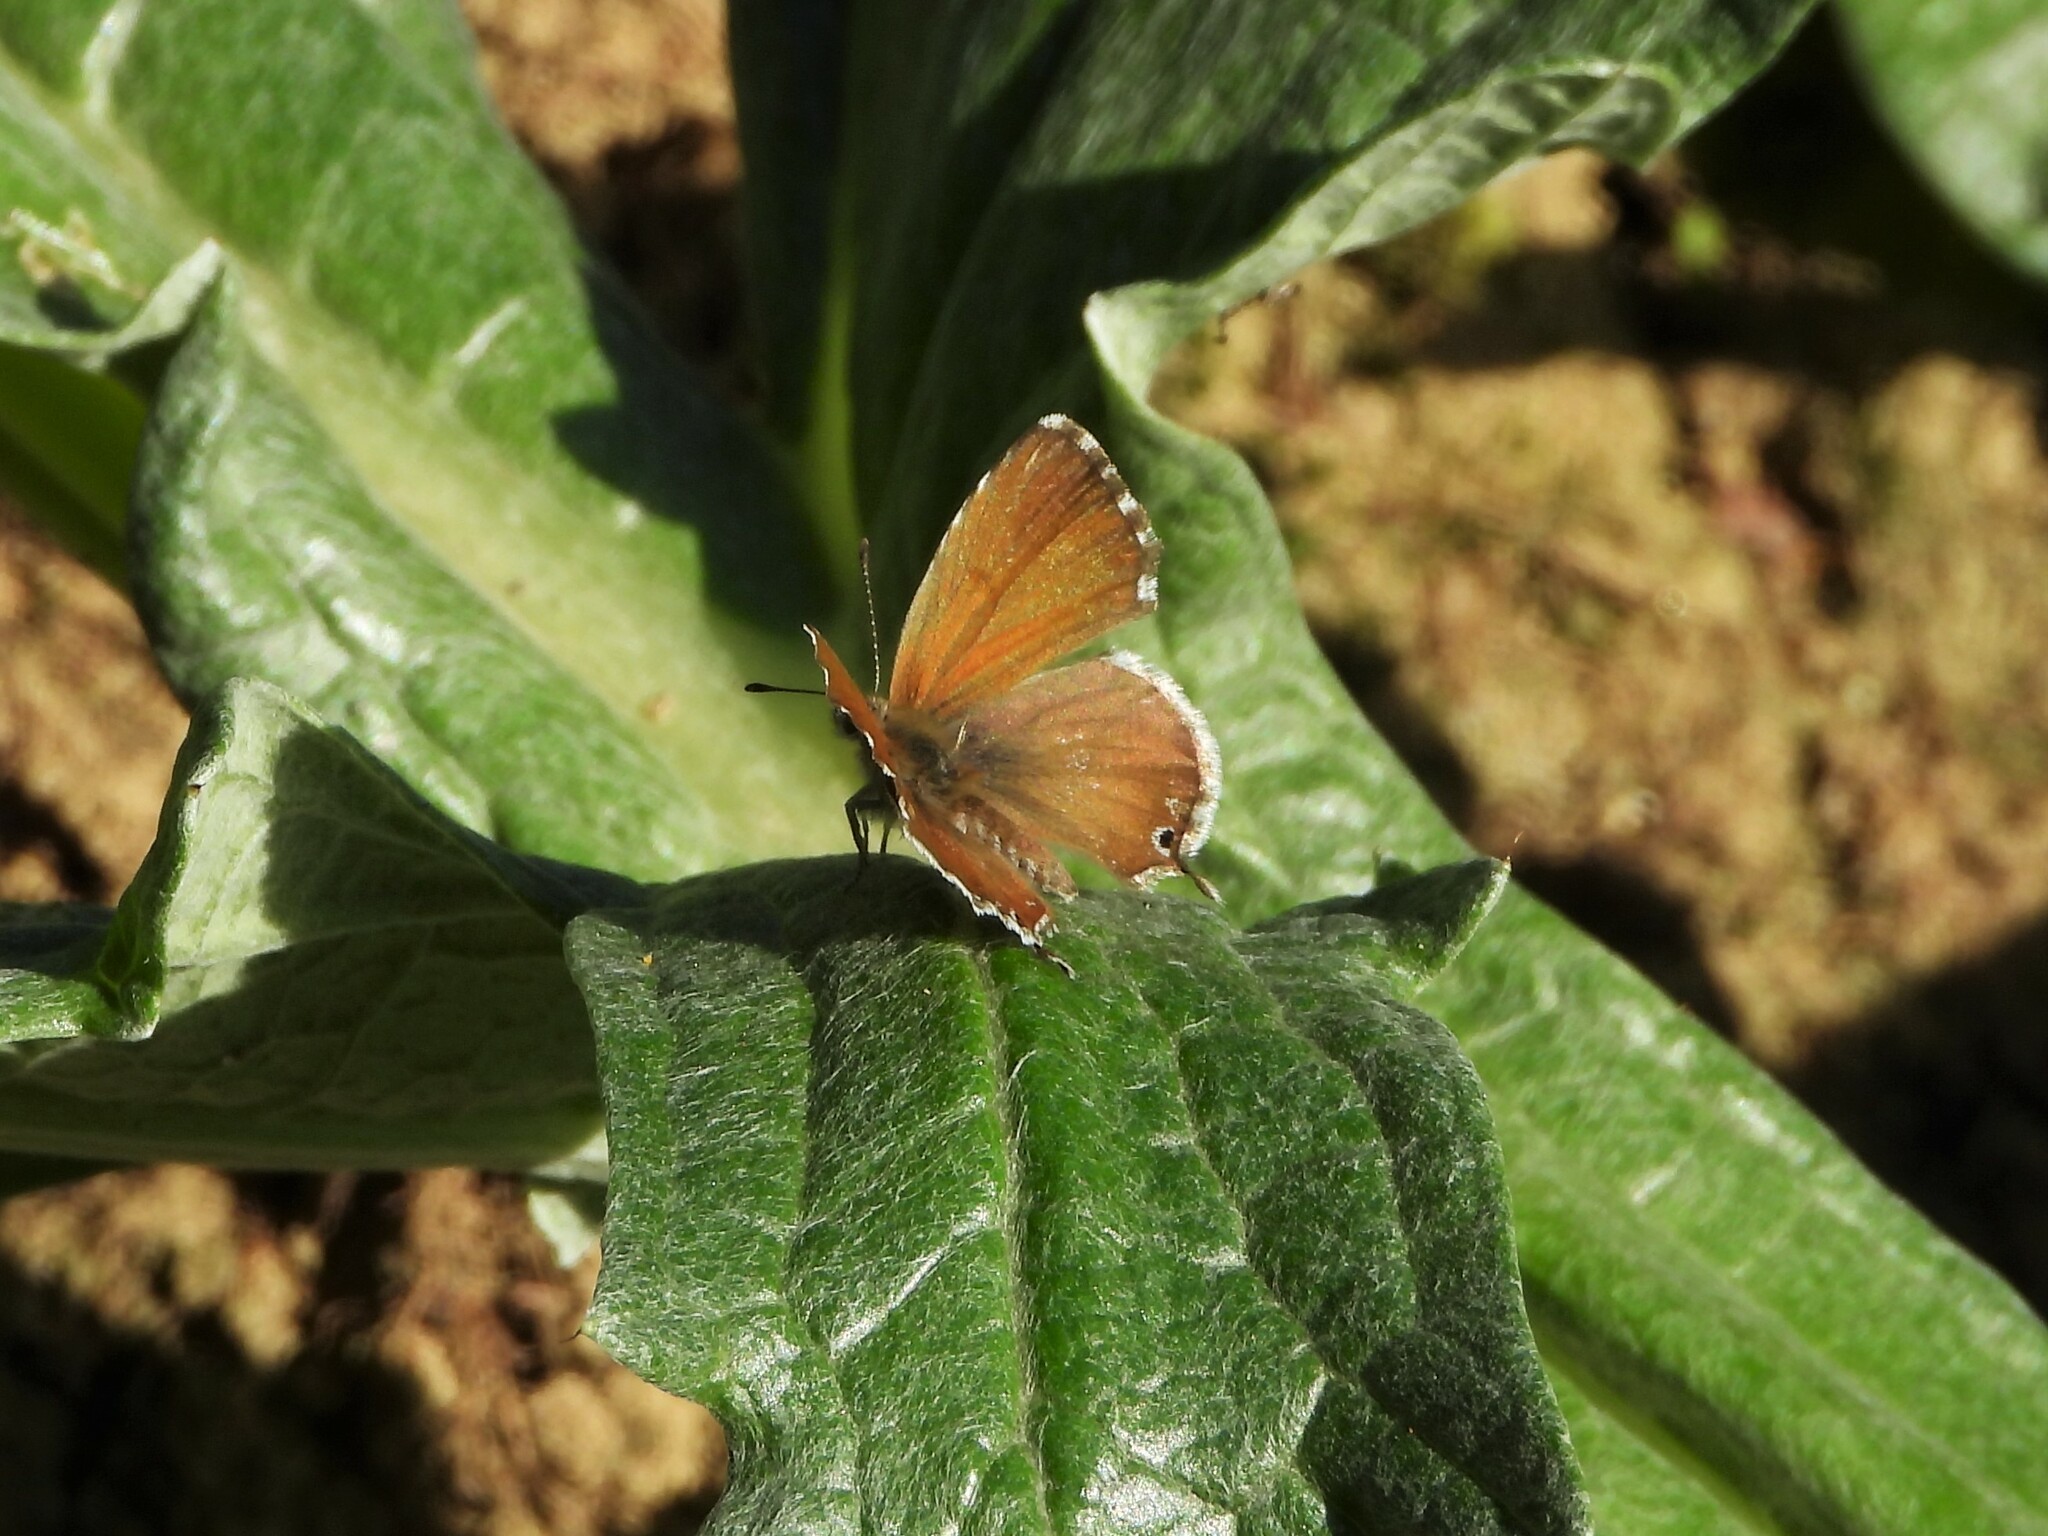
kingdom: Animalia
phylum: Arthropoda
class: Insecta
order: Lepidoptera
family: Lycaenidae
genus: Cacyreus
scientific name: Cacyreus marshalli
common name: Geranium bronze
